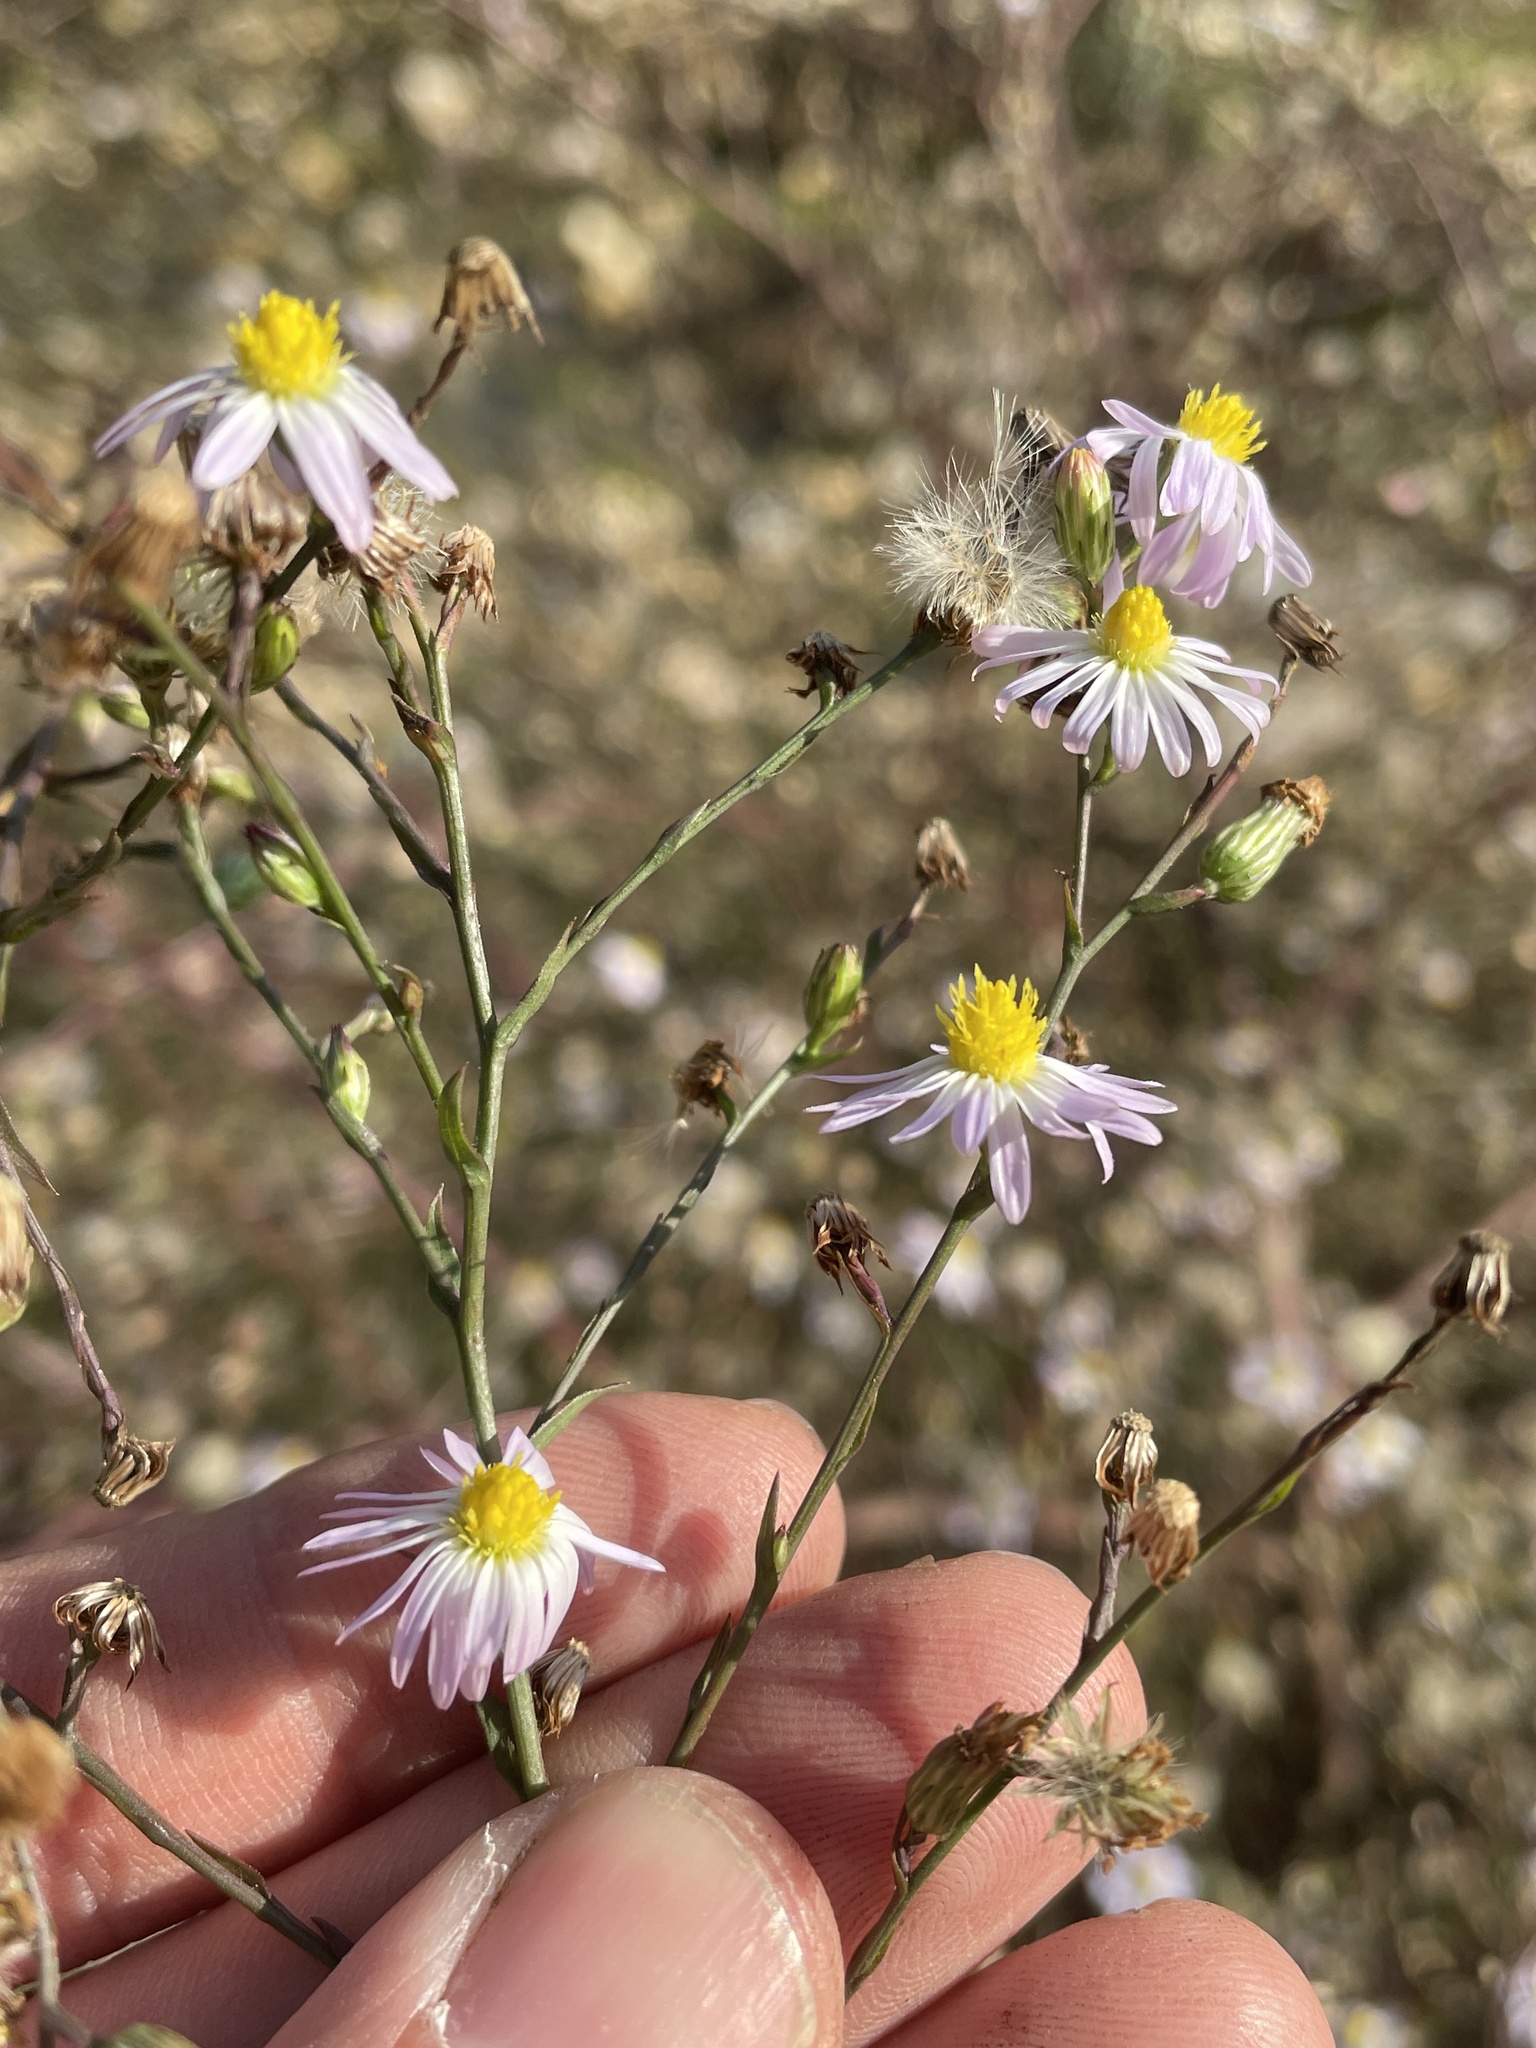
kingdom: Plantae
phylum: Tracheophyta
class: Magnoliopsida
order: Asterales
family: Asteraceae
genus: Symphyotrichum
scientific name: Symphyotrichum divaricatum
